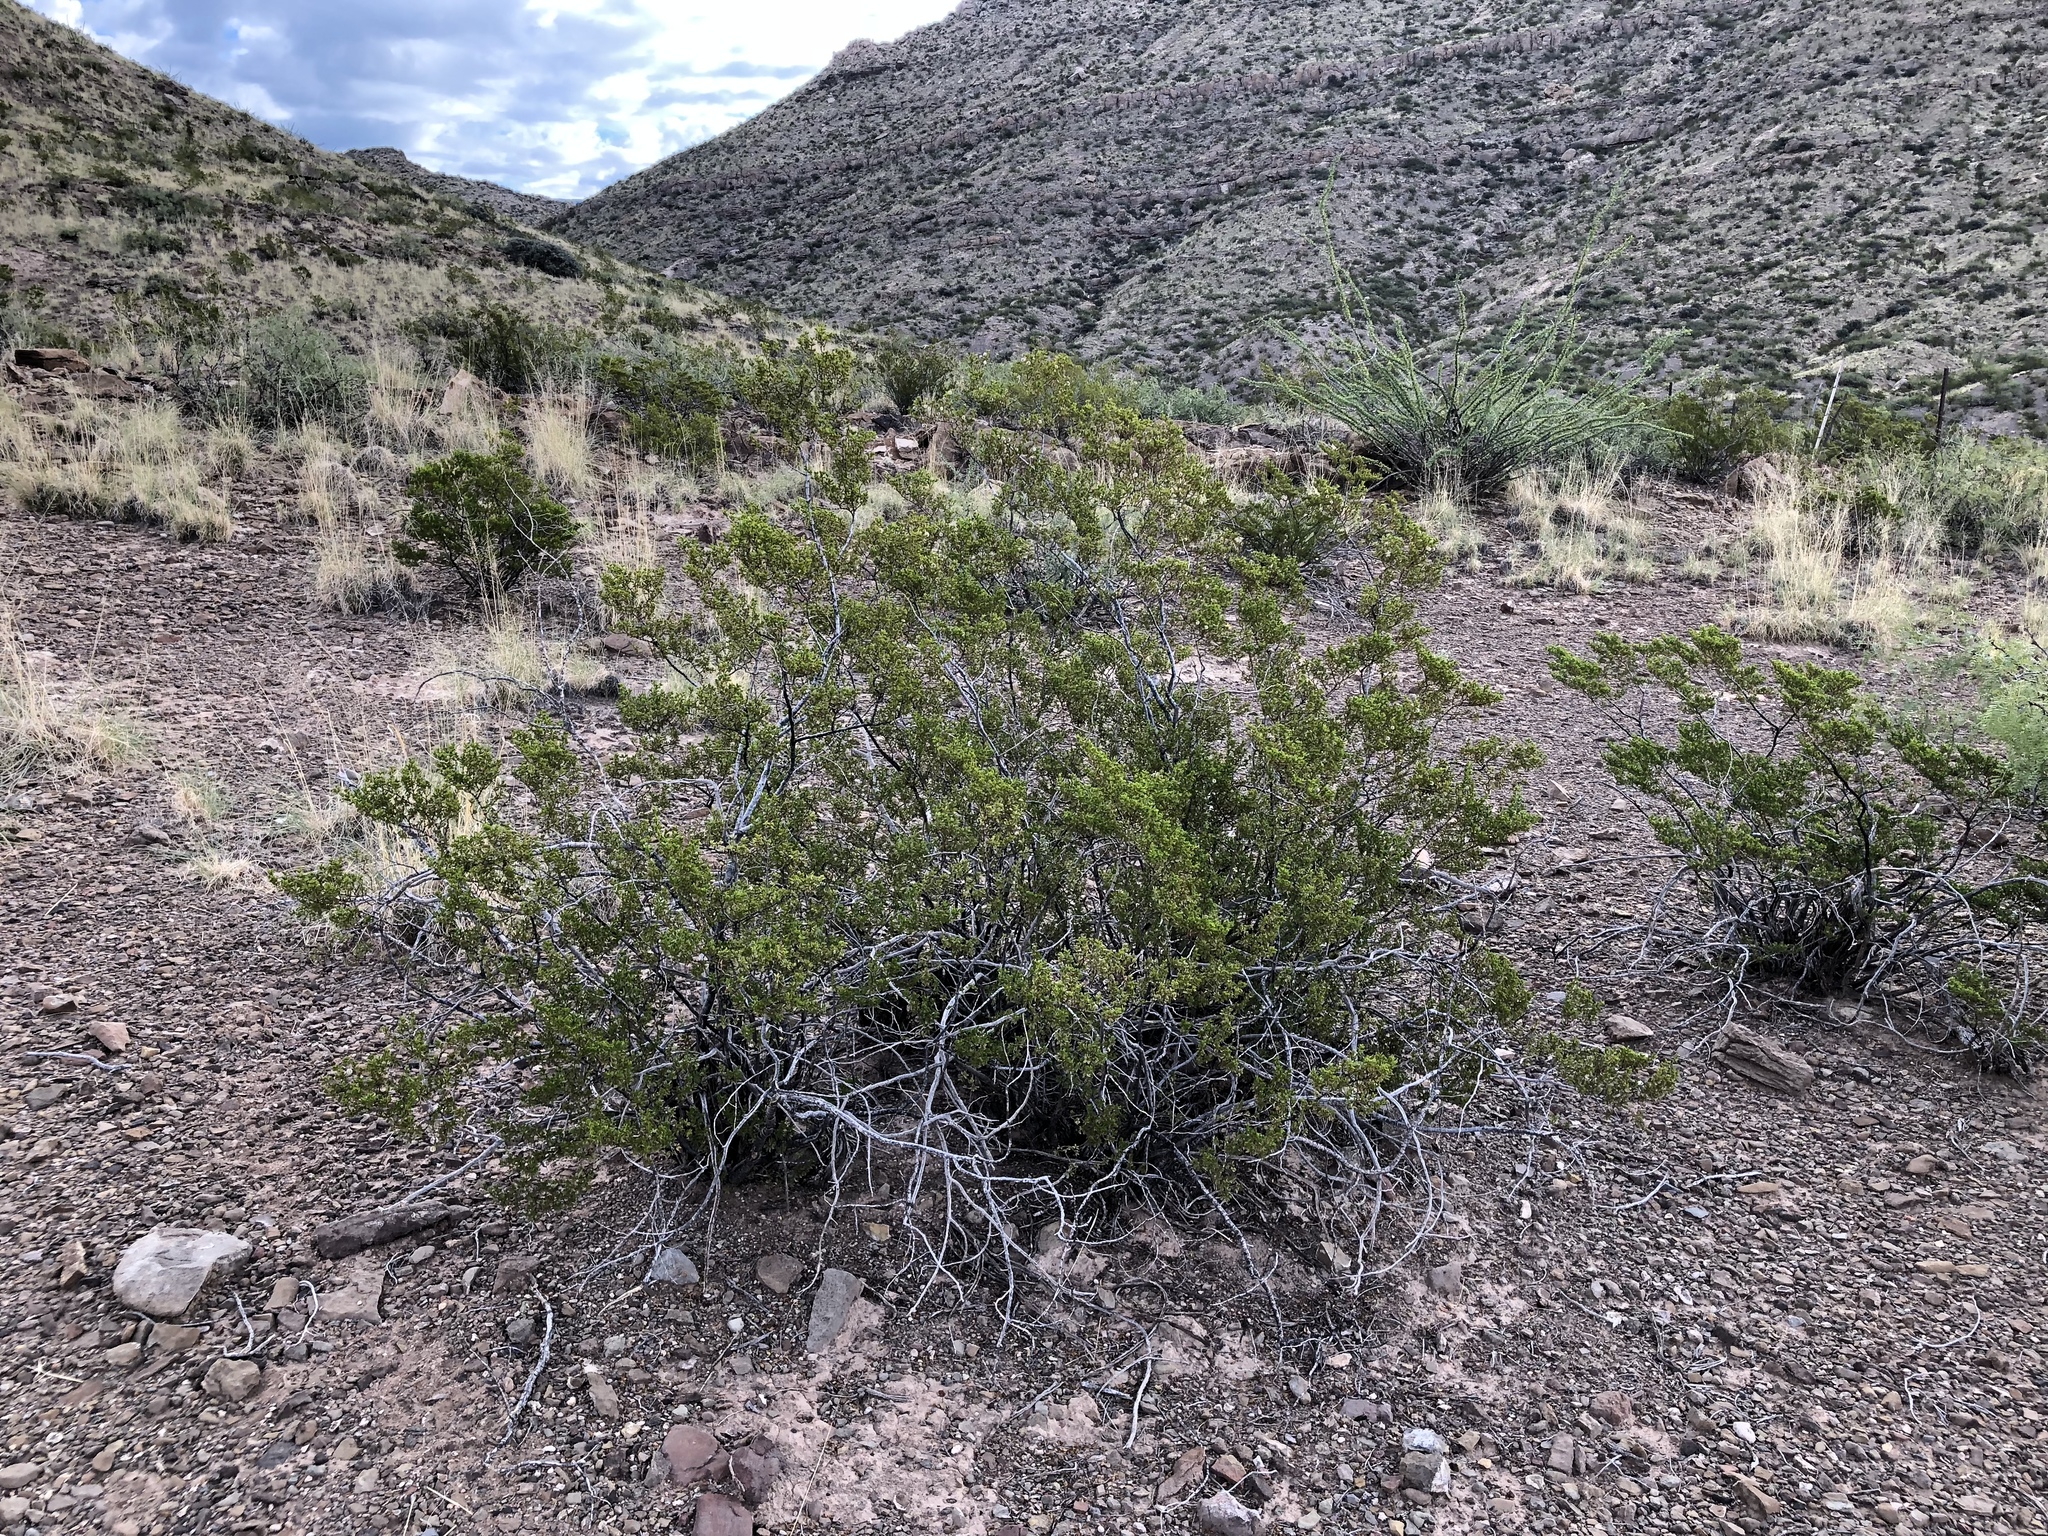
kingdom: Plantae
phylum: Tracheophyta
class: Magnoliopsida
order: Zygophyllales
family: Zygophyllaceae
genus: Larrea
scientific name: Larrea tridentata
